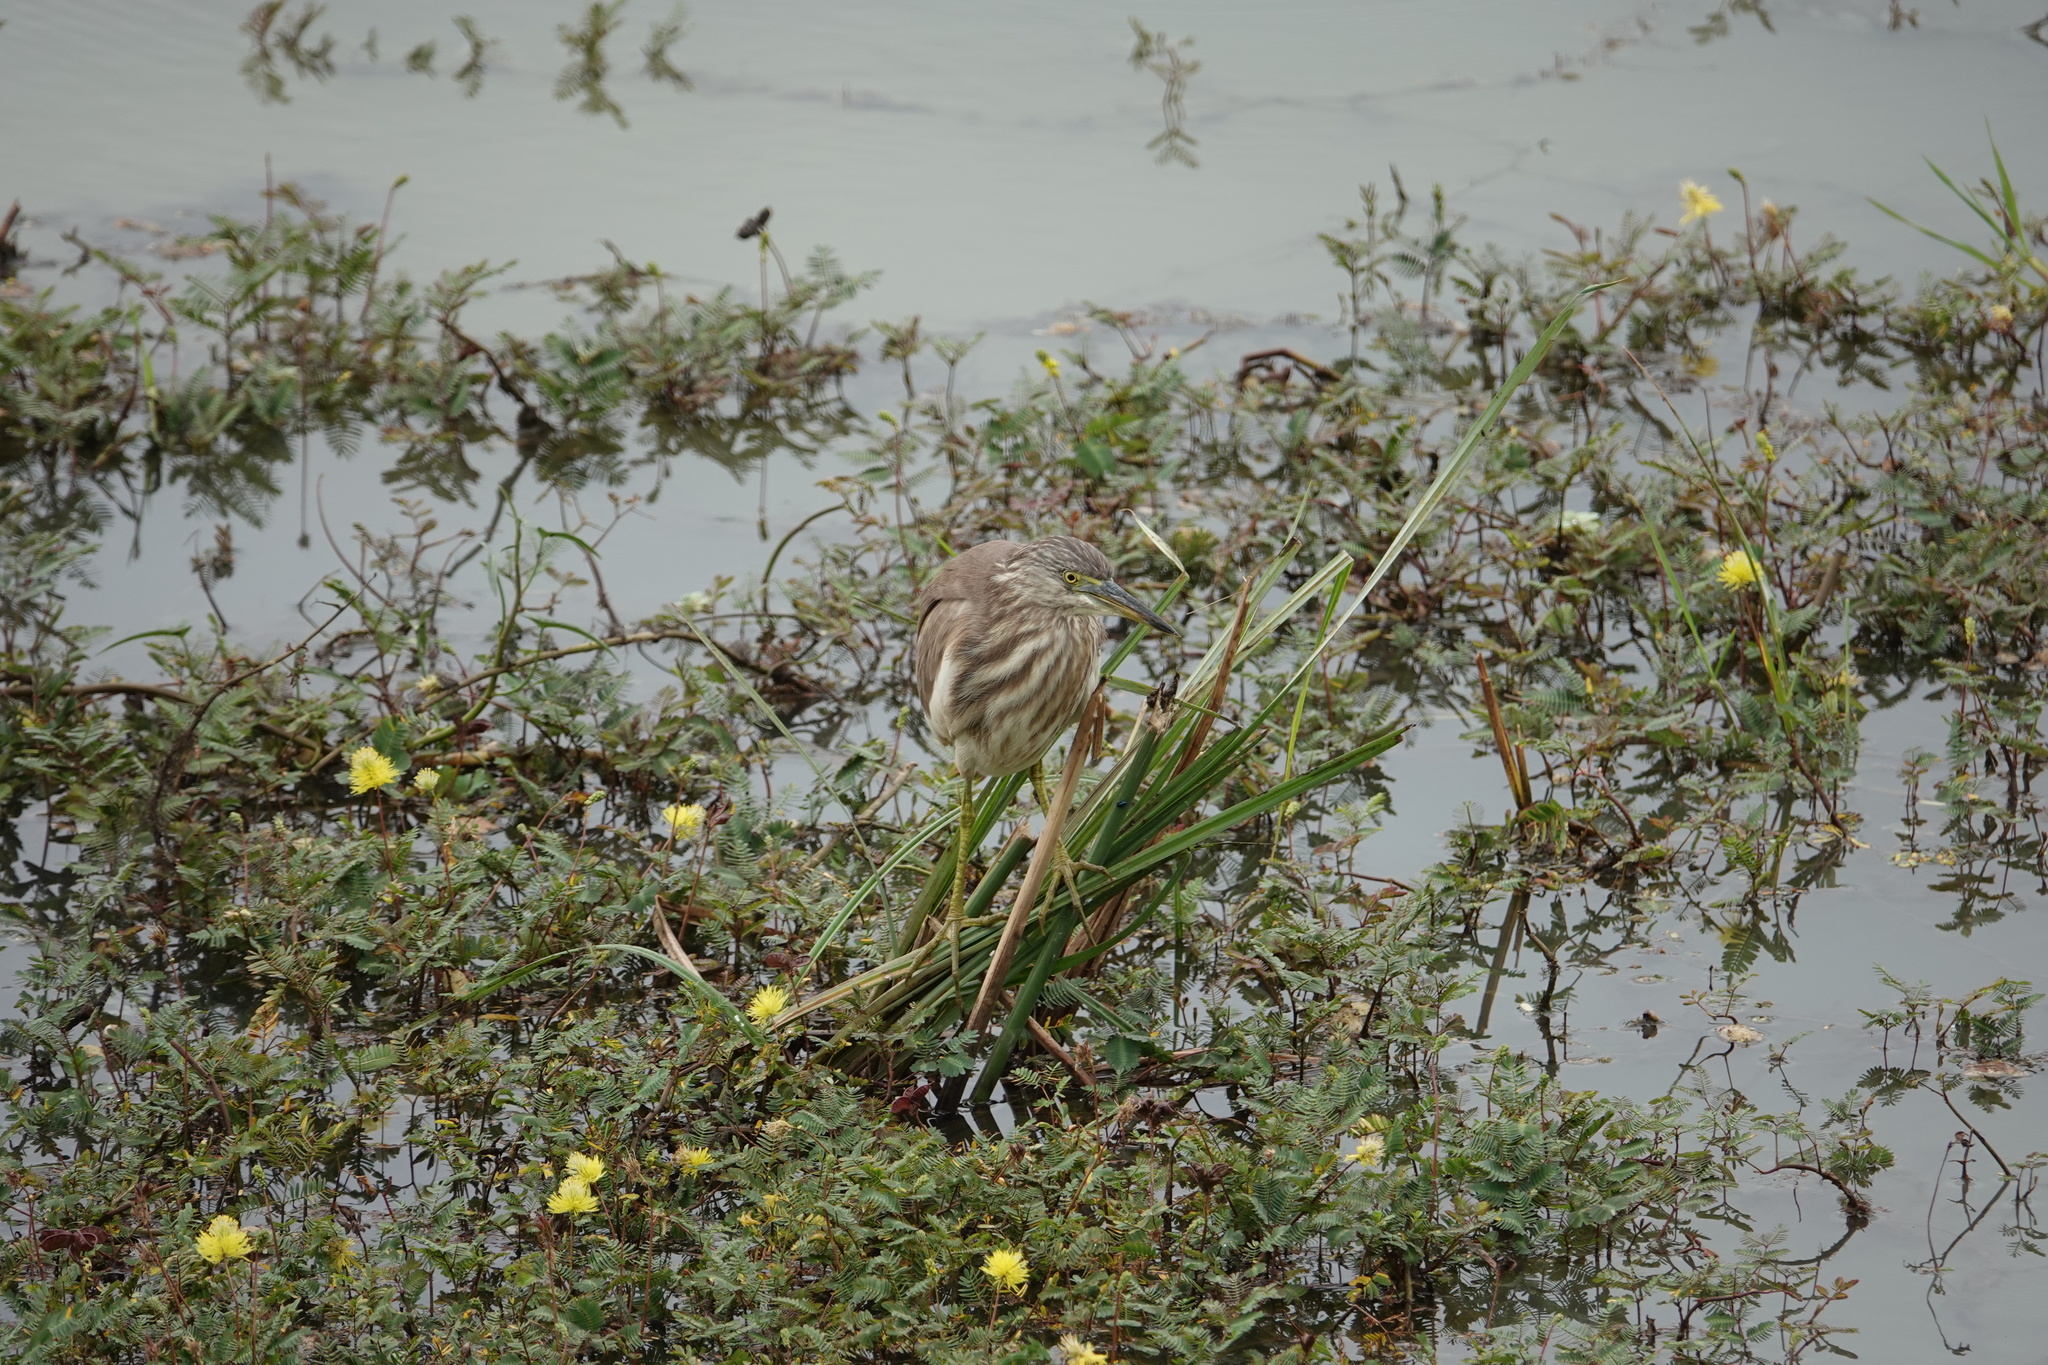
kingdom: Animalia
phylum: Chordata
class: Aves
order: Pelecaniformes
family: Ardeidae
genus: Ardeola
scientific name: Ardeola grayii
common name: Indian pond heron
